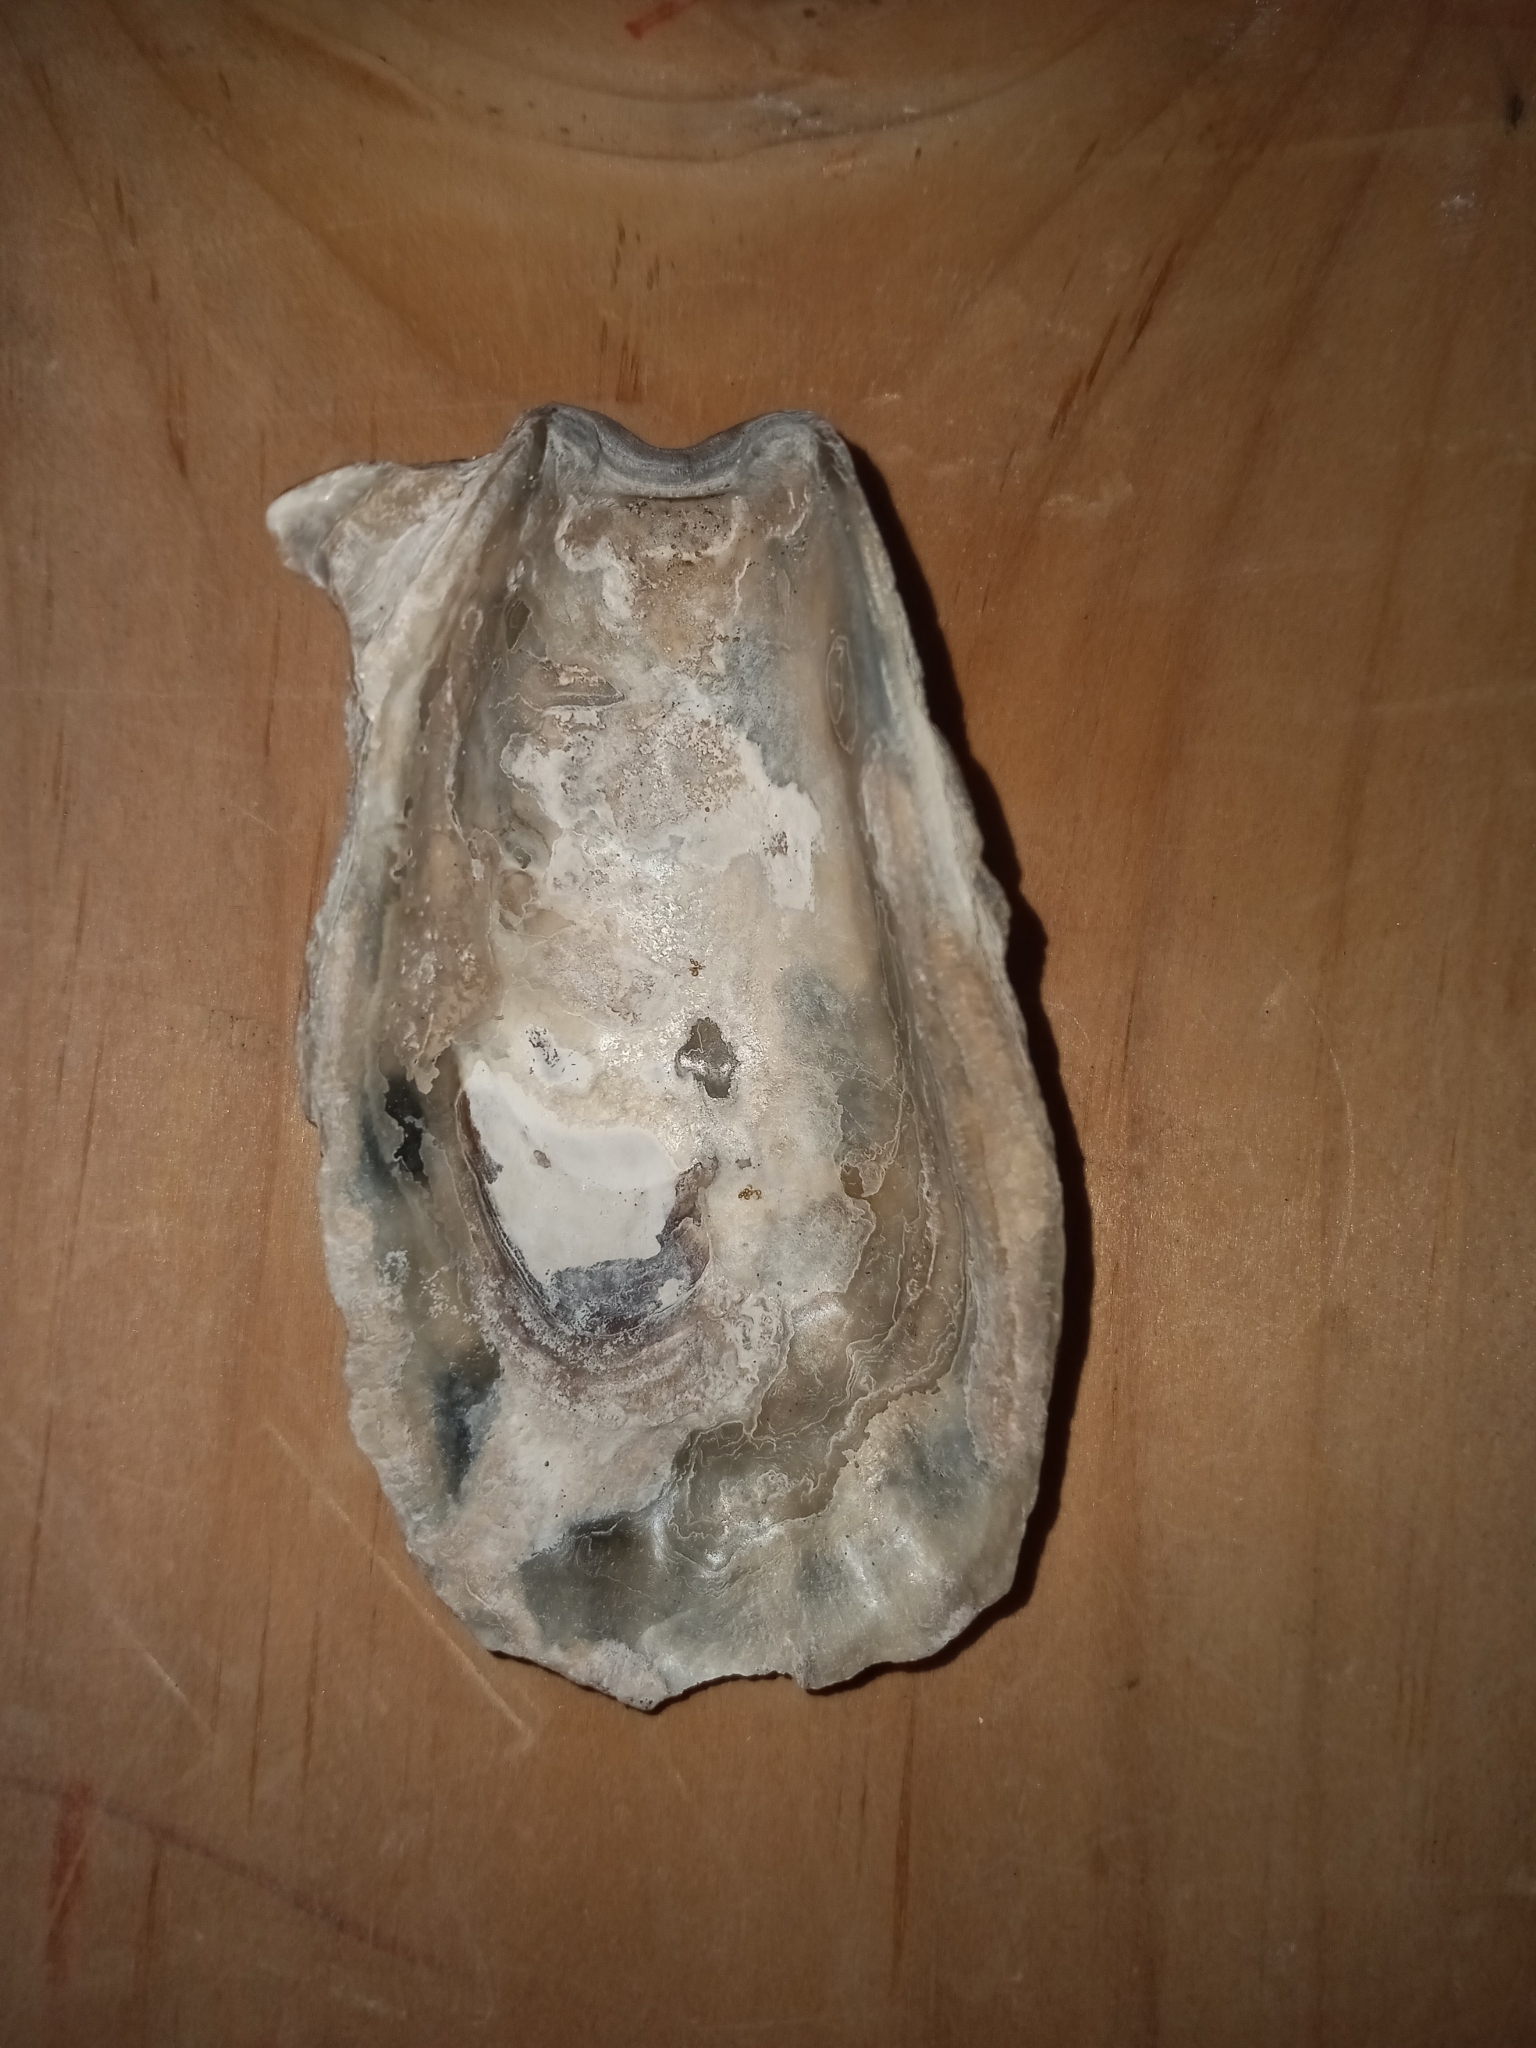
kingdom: Animalia
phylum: Mollusca
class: Bivalvia
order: Ostreida
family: Ostreidae
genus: Crassostrea
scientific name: Crassostrea virginica
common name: American oyster
